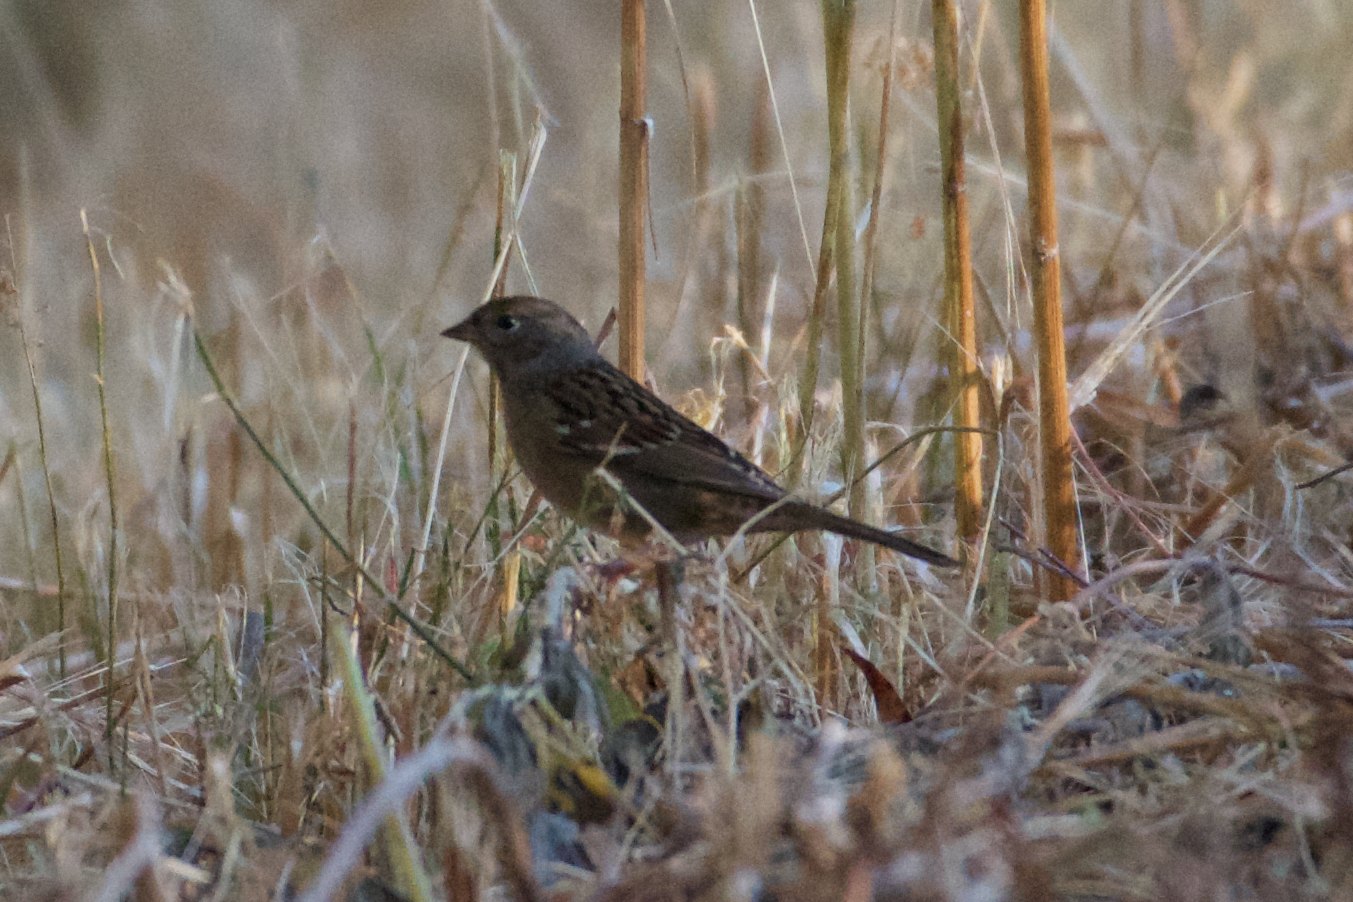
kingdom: Animalia
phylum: Chordata
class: Aves
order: Passeriformes
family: Passerellidae
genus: Zonotrichia
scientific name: Zonotrichia atricapilla
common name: Golden-crowned sparrow
